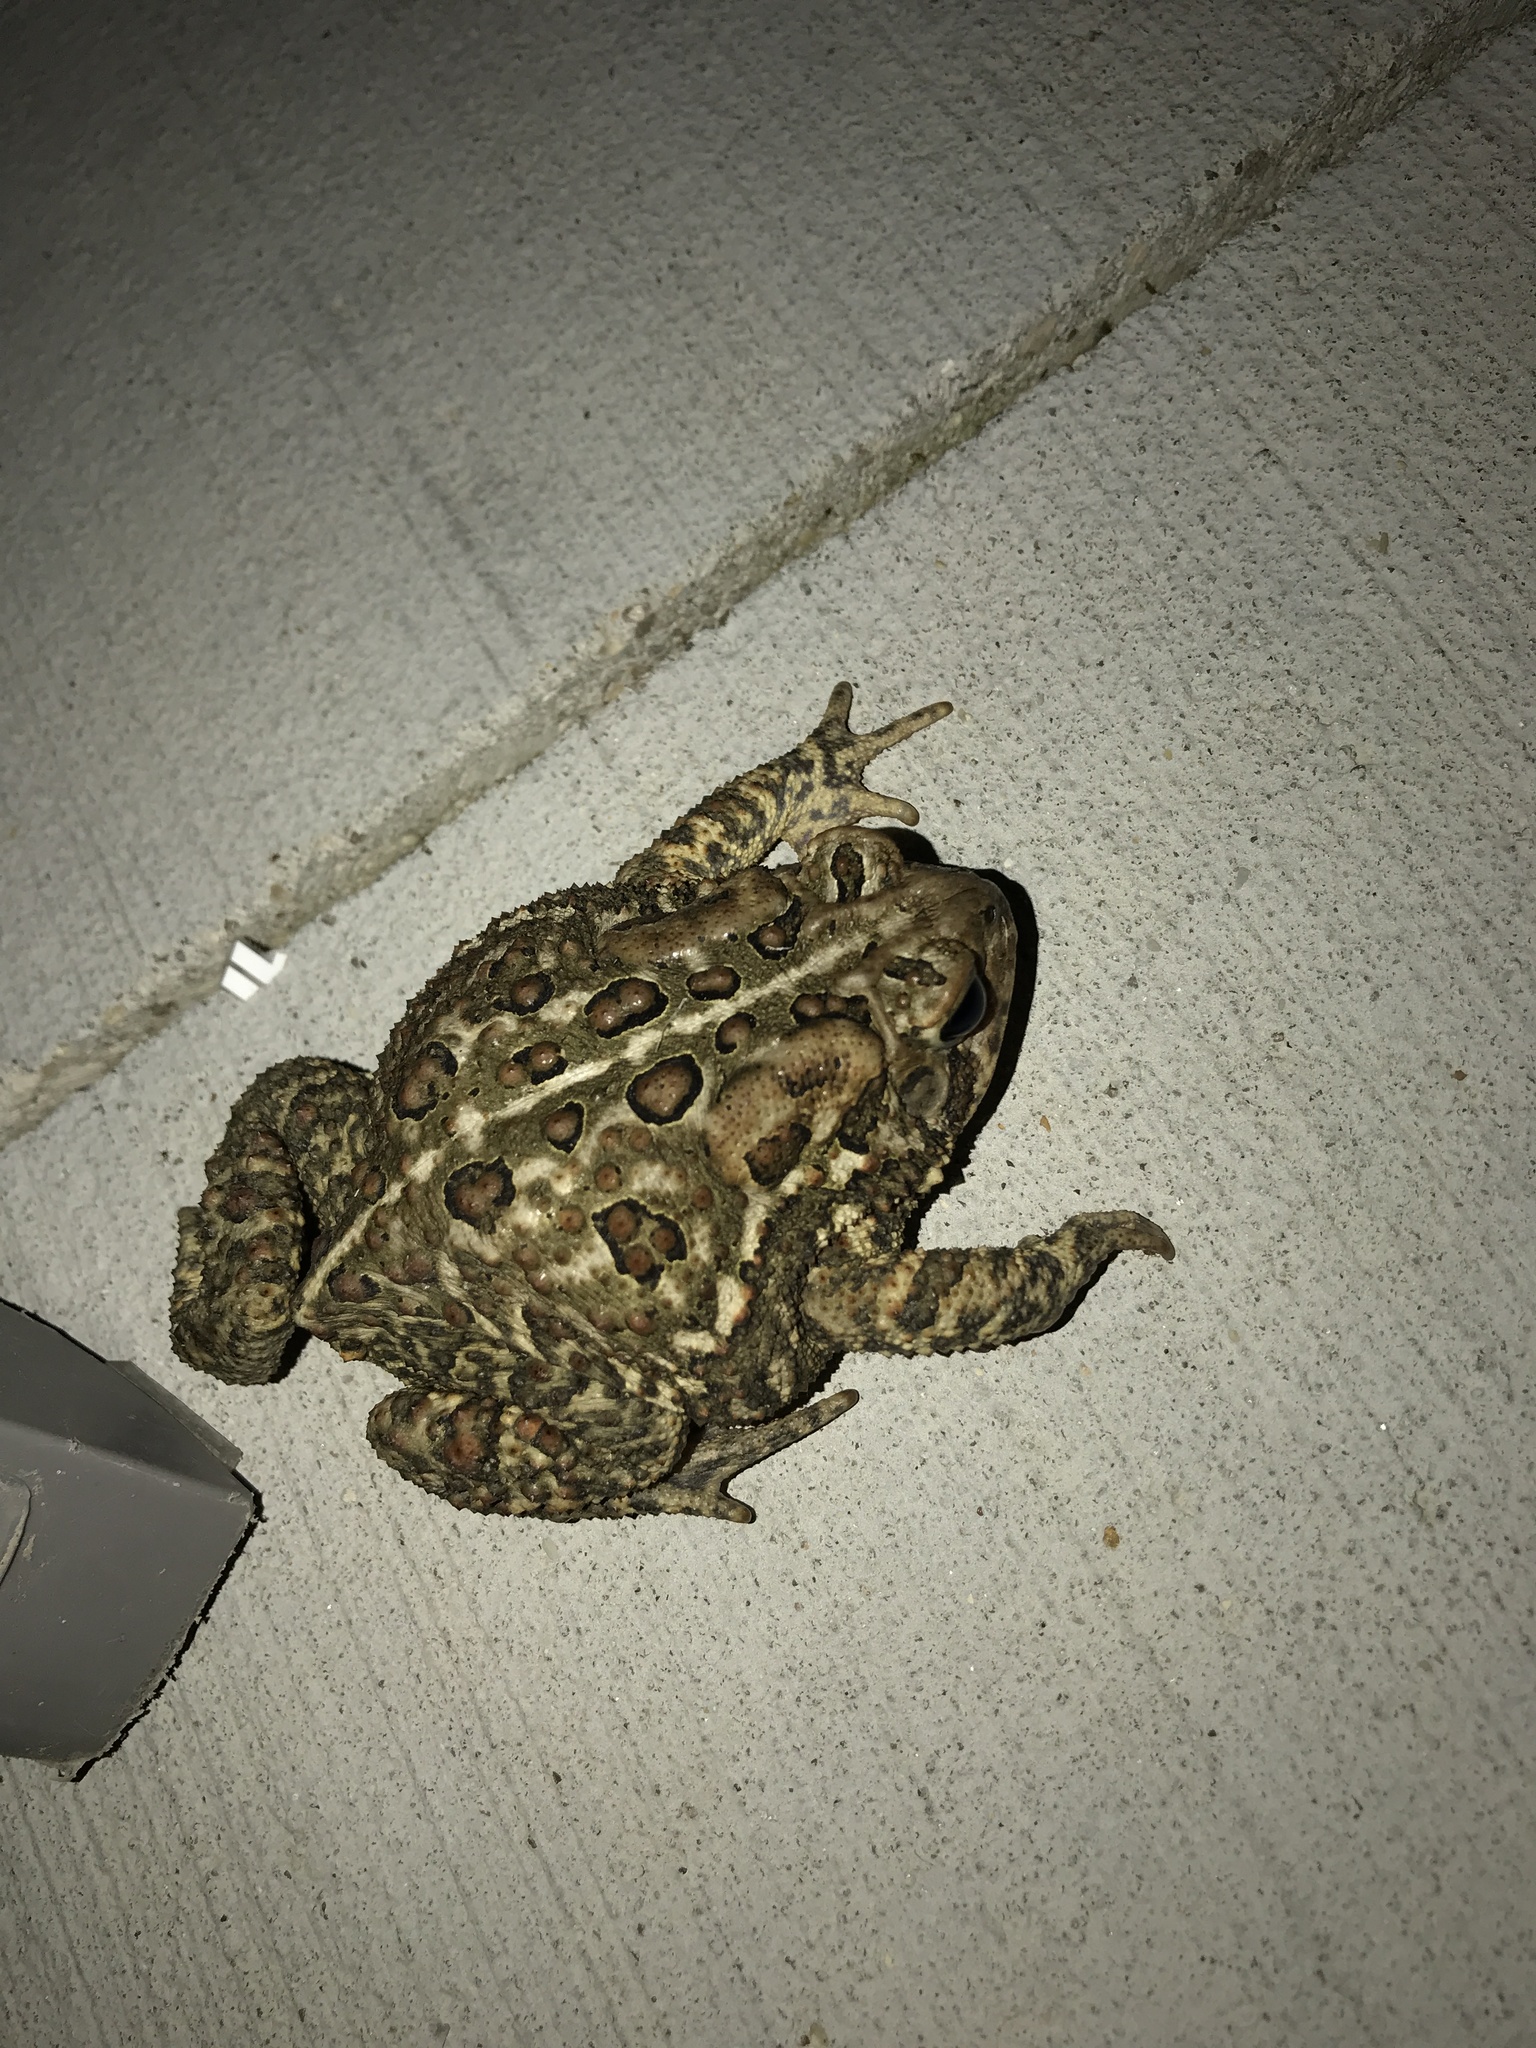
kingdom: Animalia
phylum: Chordata
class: Amphibia
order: Anura
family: Bufonidae
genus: Anaxyrus
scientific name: Anaxyrus americanus
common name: American toad
